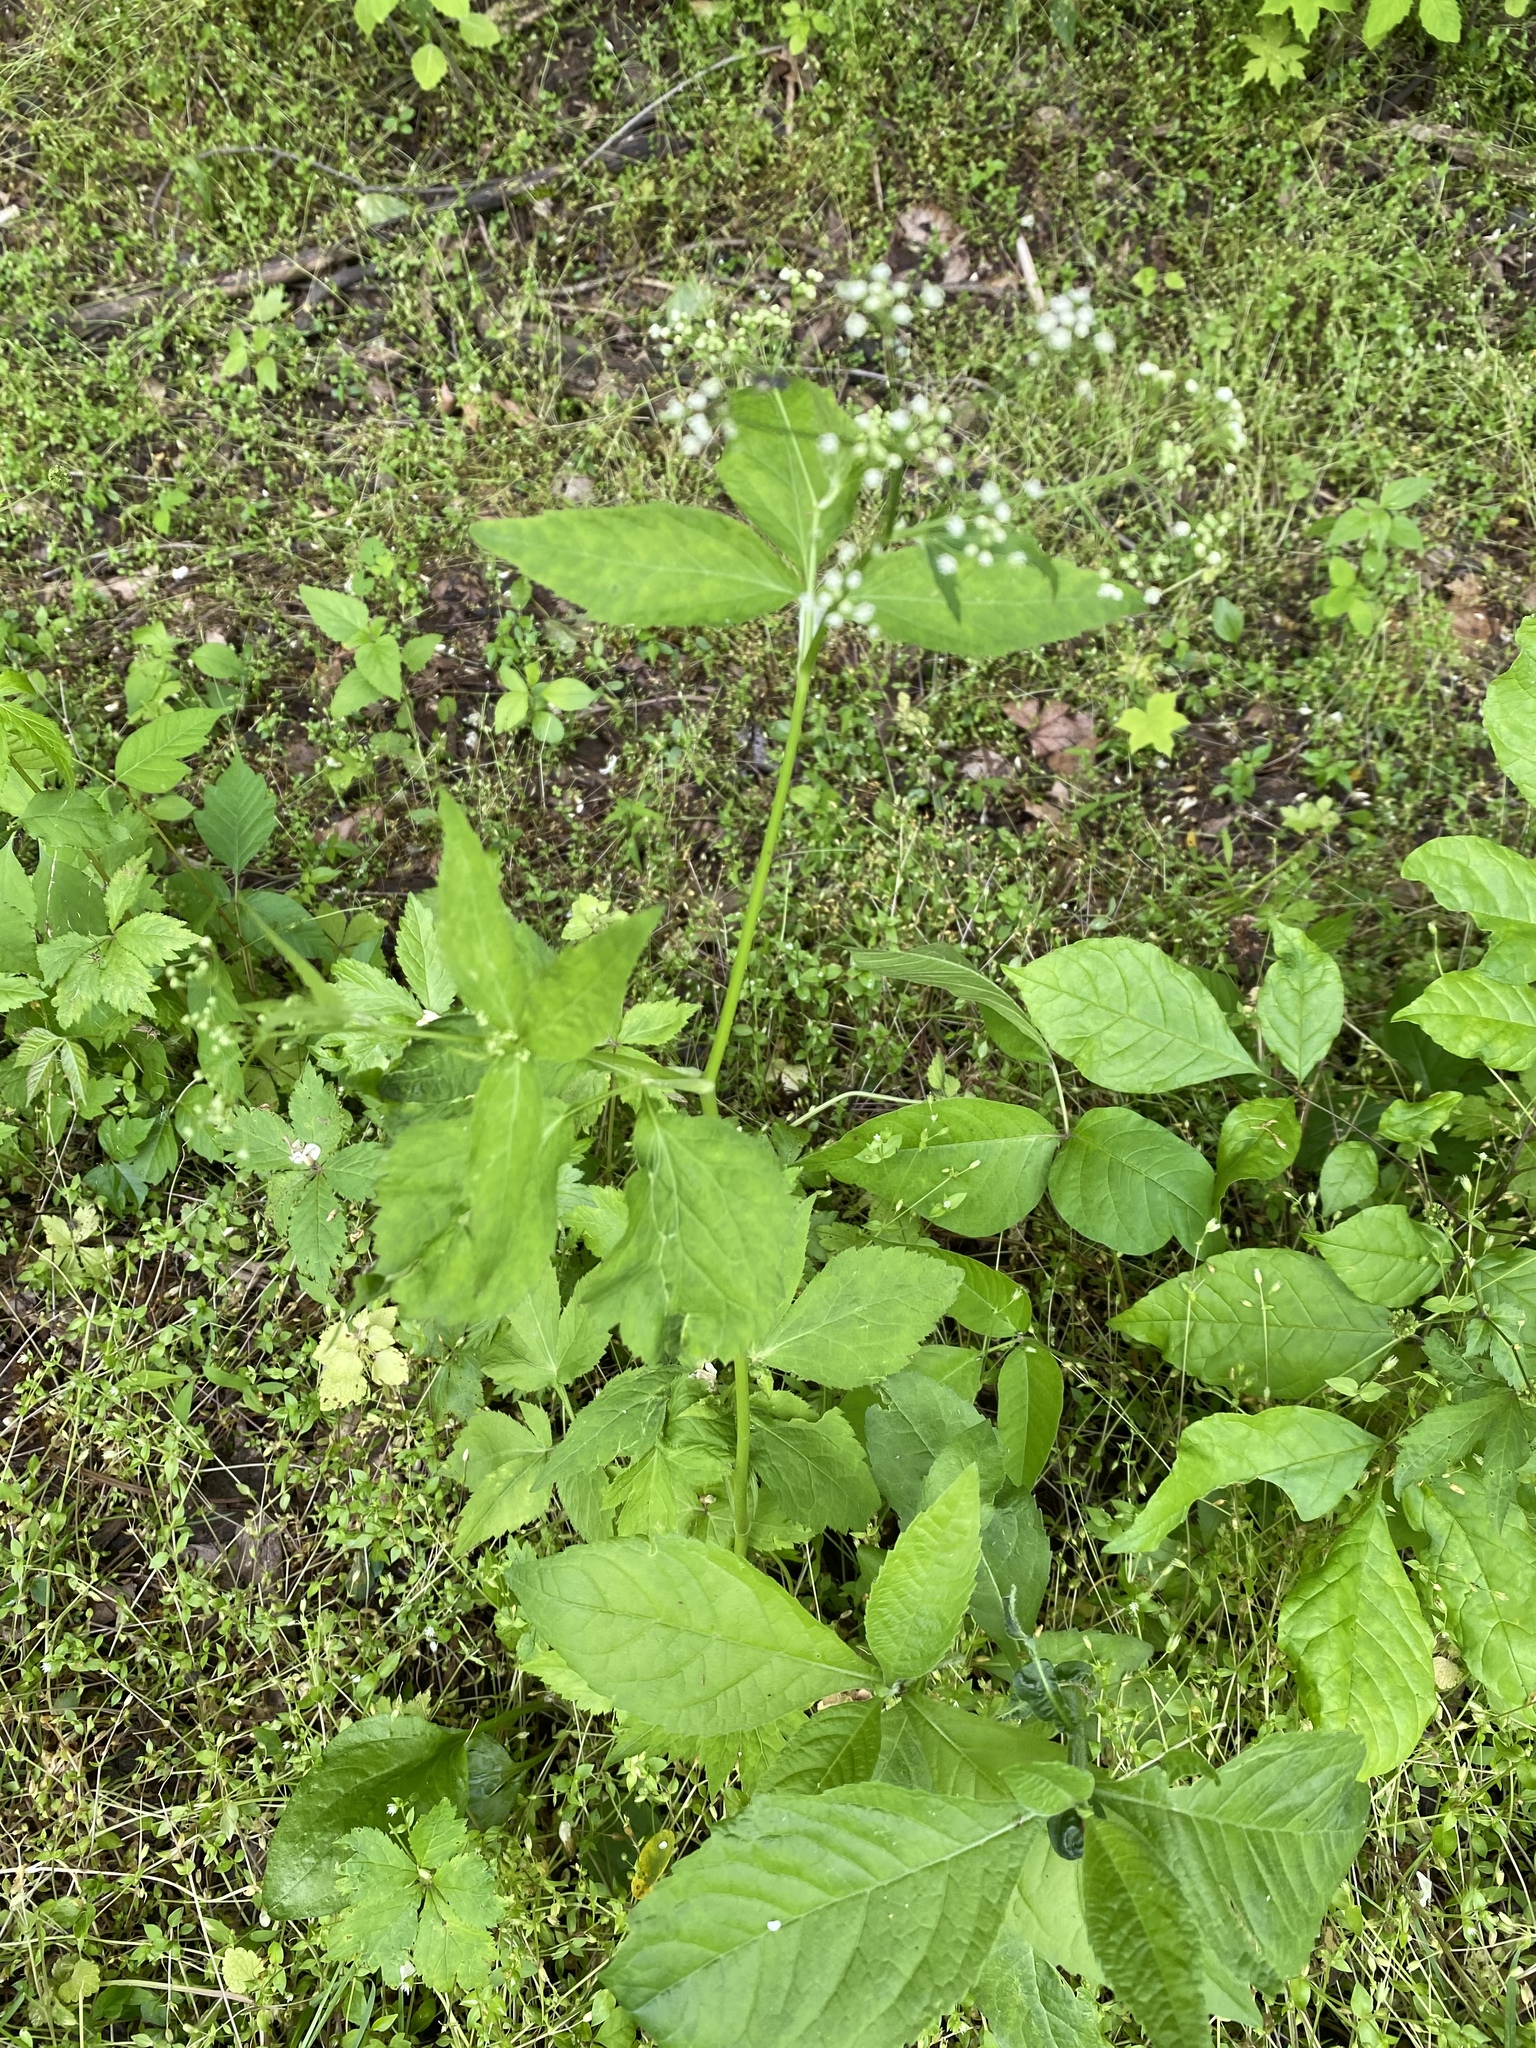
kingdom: Plantae
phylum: Tracheophyta
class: Magnoliopsida
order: Apiales
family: Apiaceae
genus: Cryptotaenia
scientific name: Cryptotaenia canadensis
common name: Honewort
